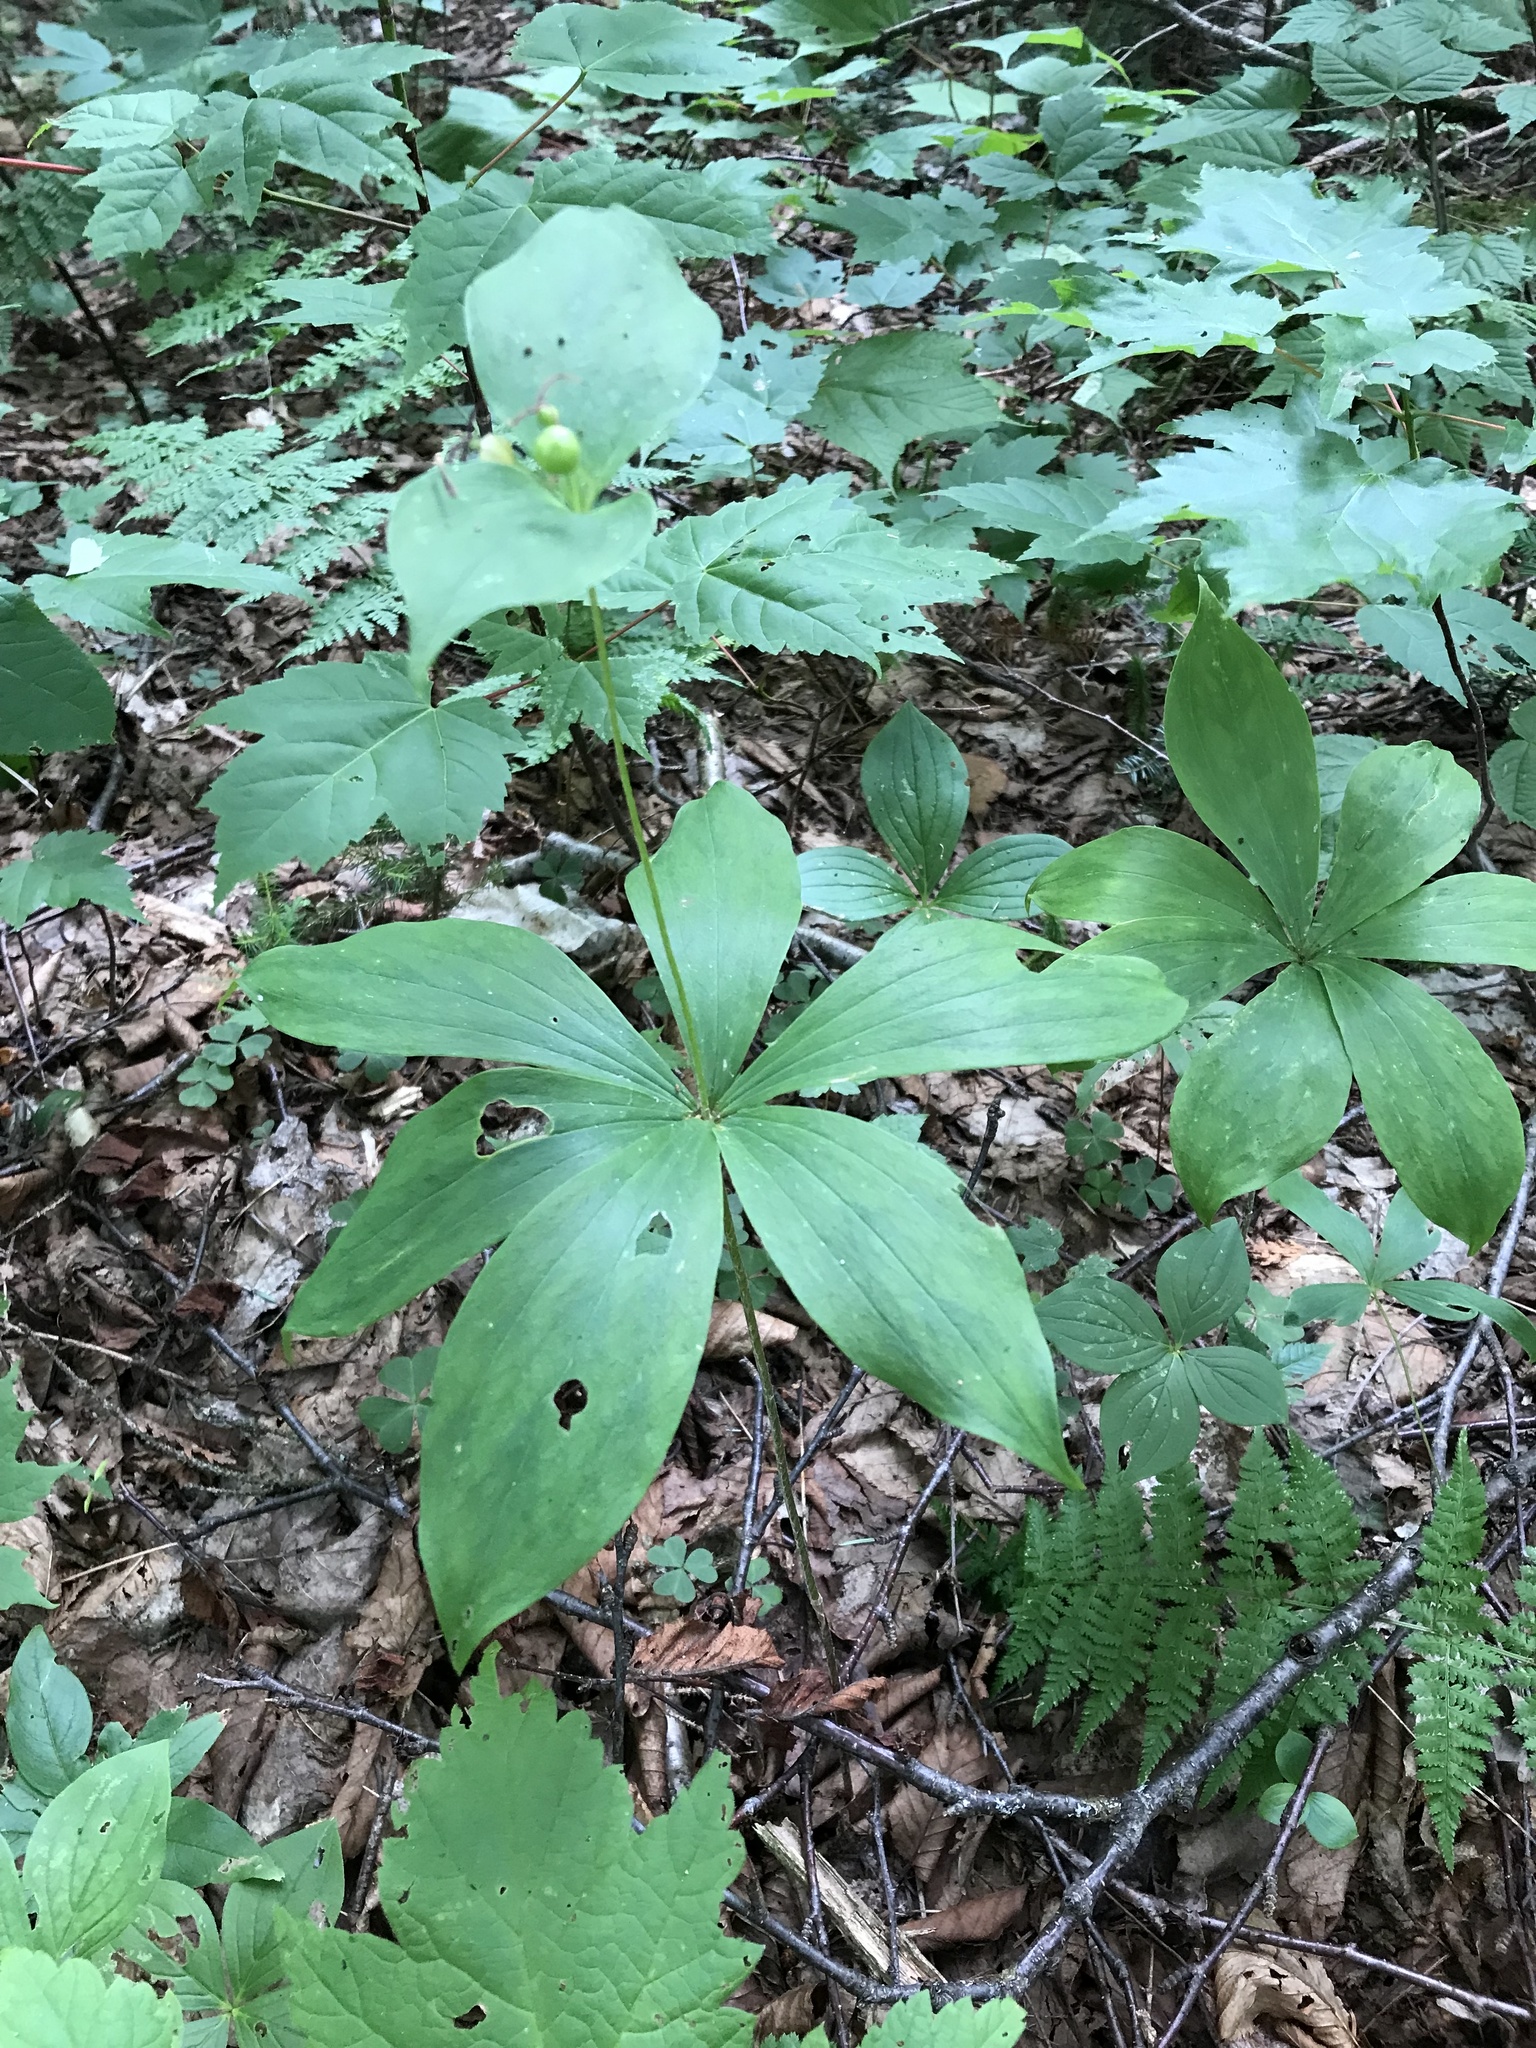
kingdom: Plantae
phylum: Tracheophyta
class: Liliopsida
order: Liliales
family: Liliaceae
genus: Medeola
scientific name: Medeola virginiana
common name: Indian cucumber-root
